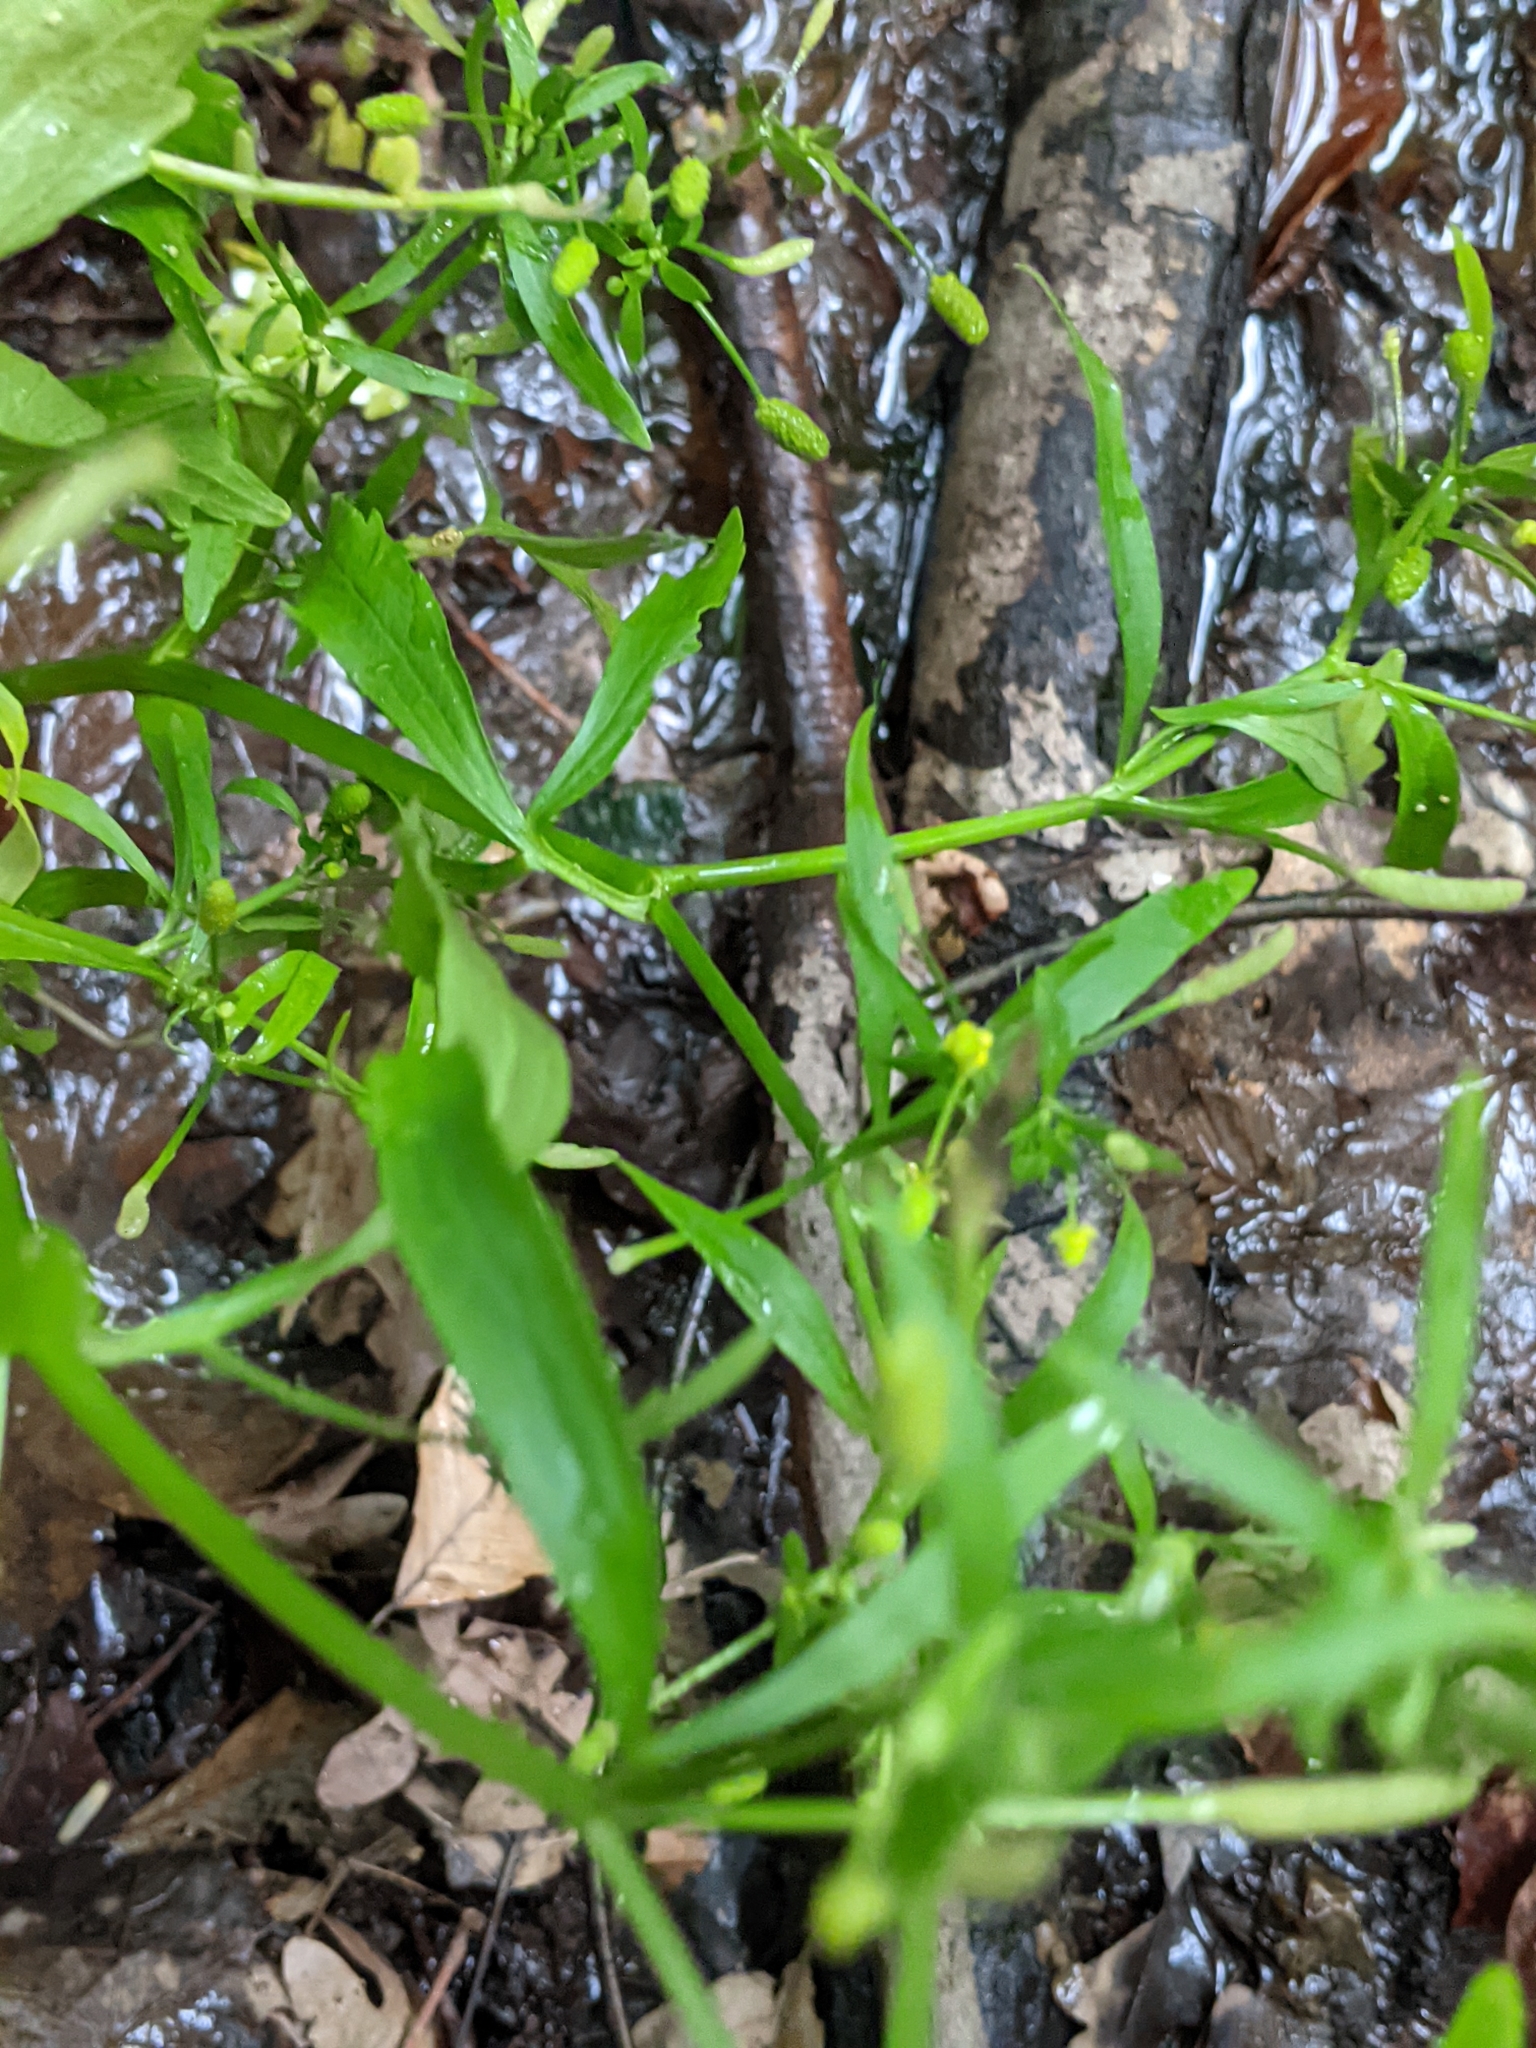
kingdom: Plantae
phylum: Tracheophyta
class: Magnoliopsida
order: Ranunculales
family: Ranunculaceae
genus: Ranunculus
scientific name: Ranunculus sceleratus
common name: Celery-leaved buttercup
